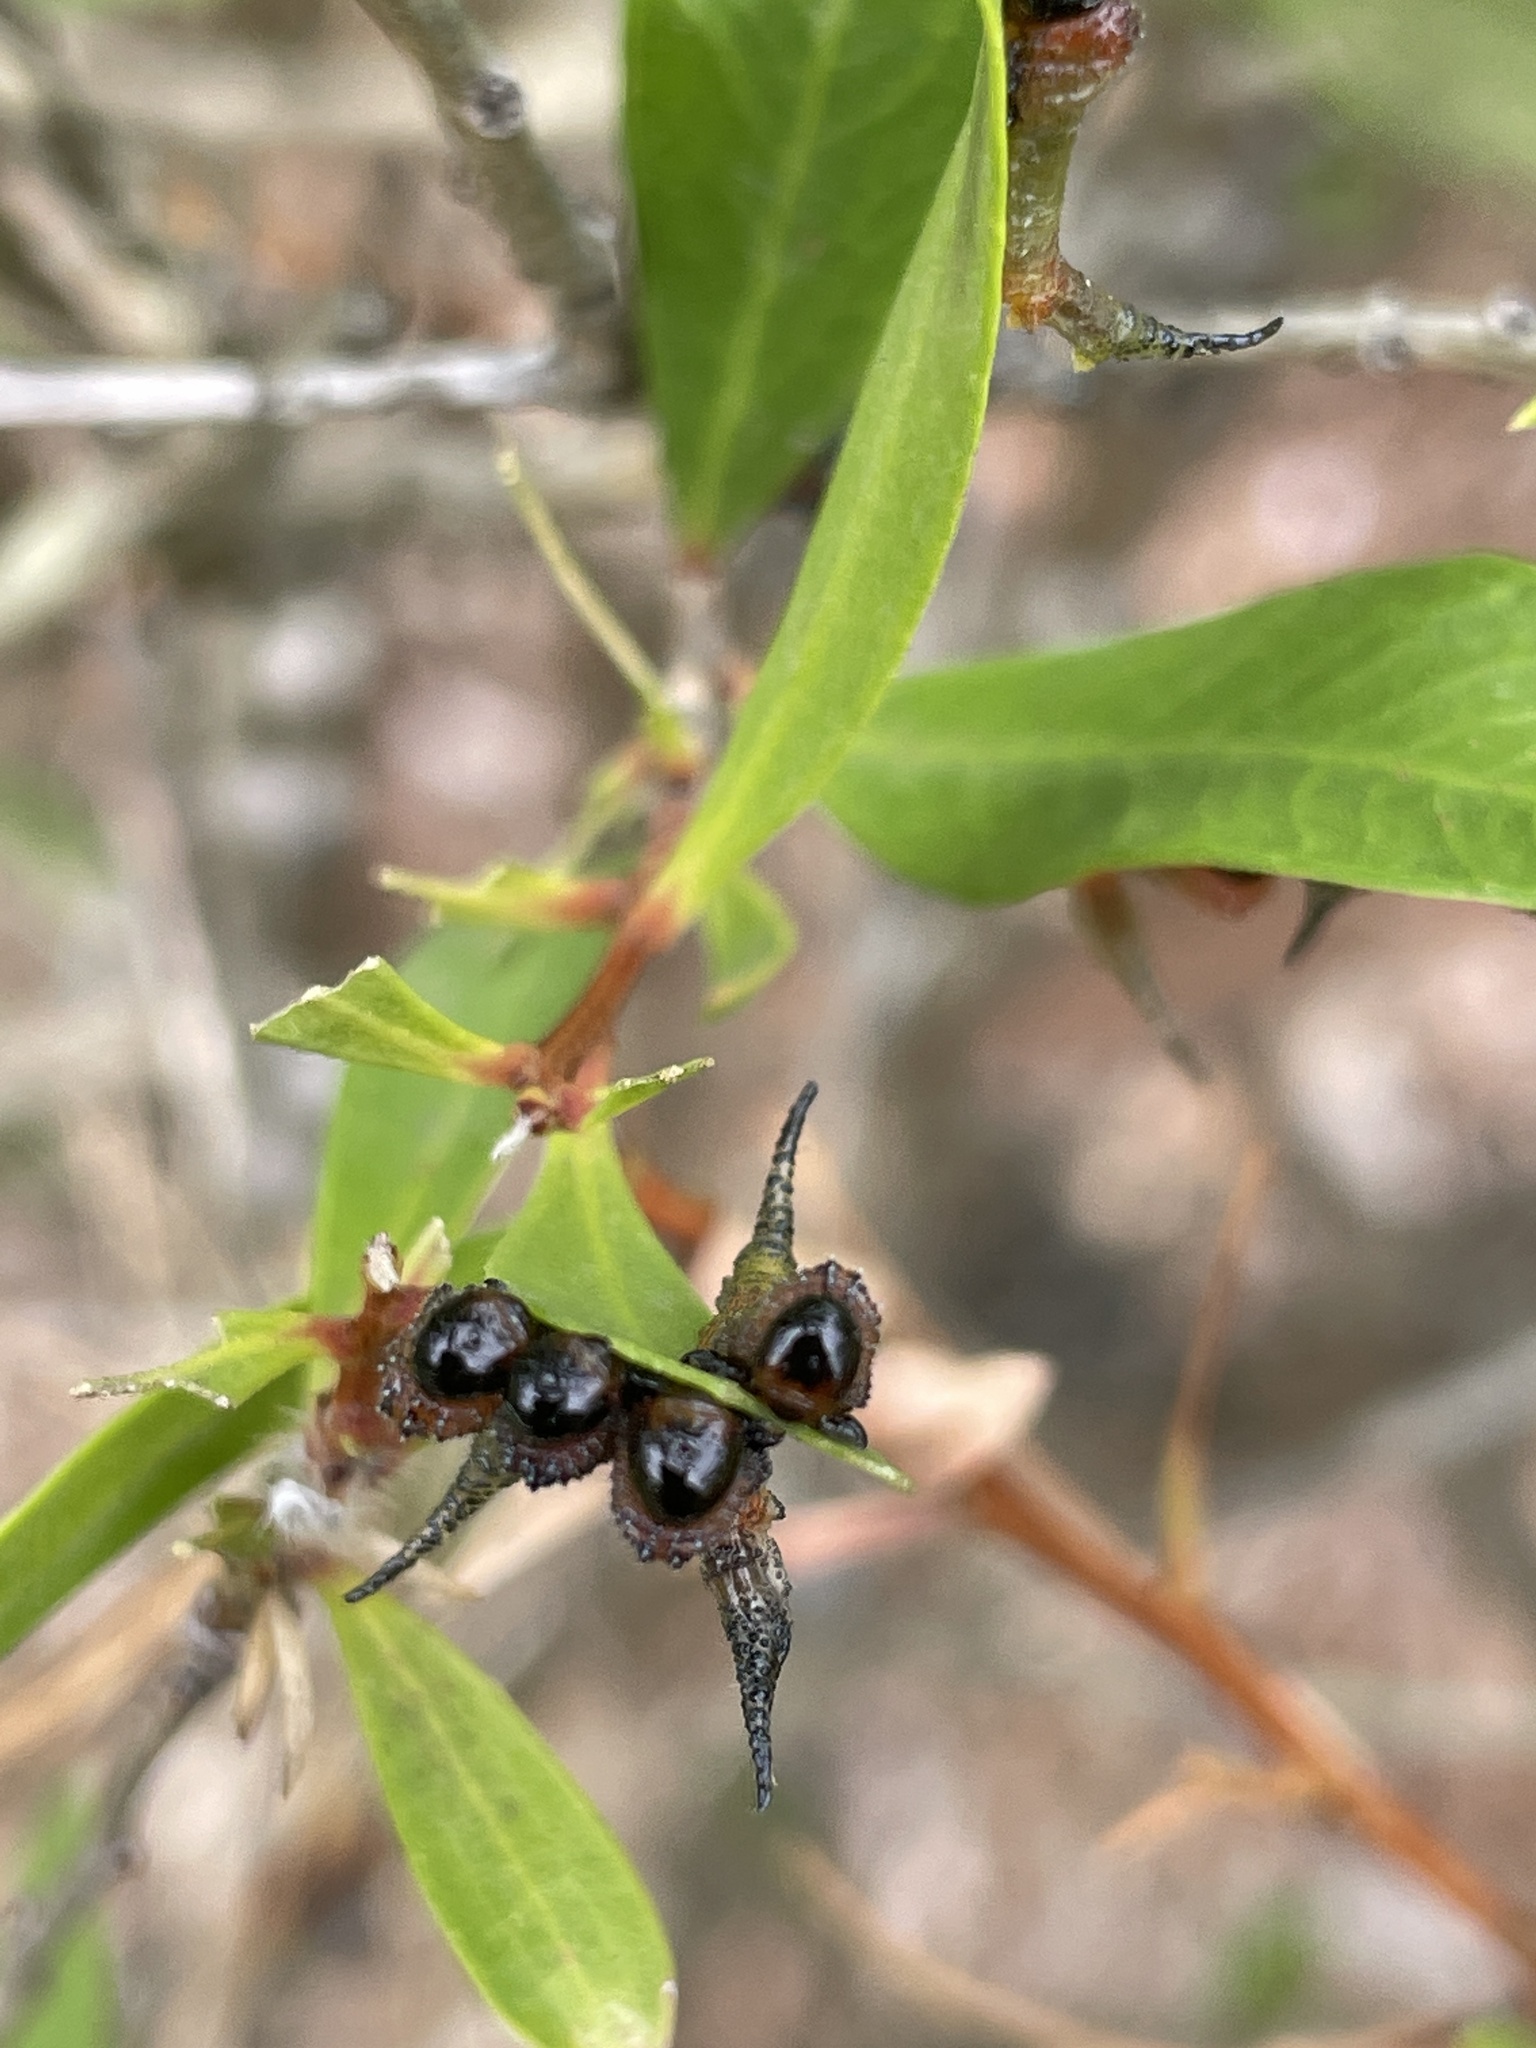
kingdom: Animalia
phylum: Arthropoda
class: Insecta
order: Hymenoptera
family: Pergidae
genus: Pterygophorus
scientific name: Pterygophorus
